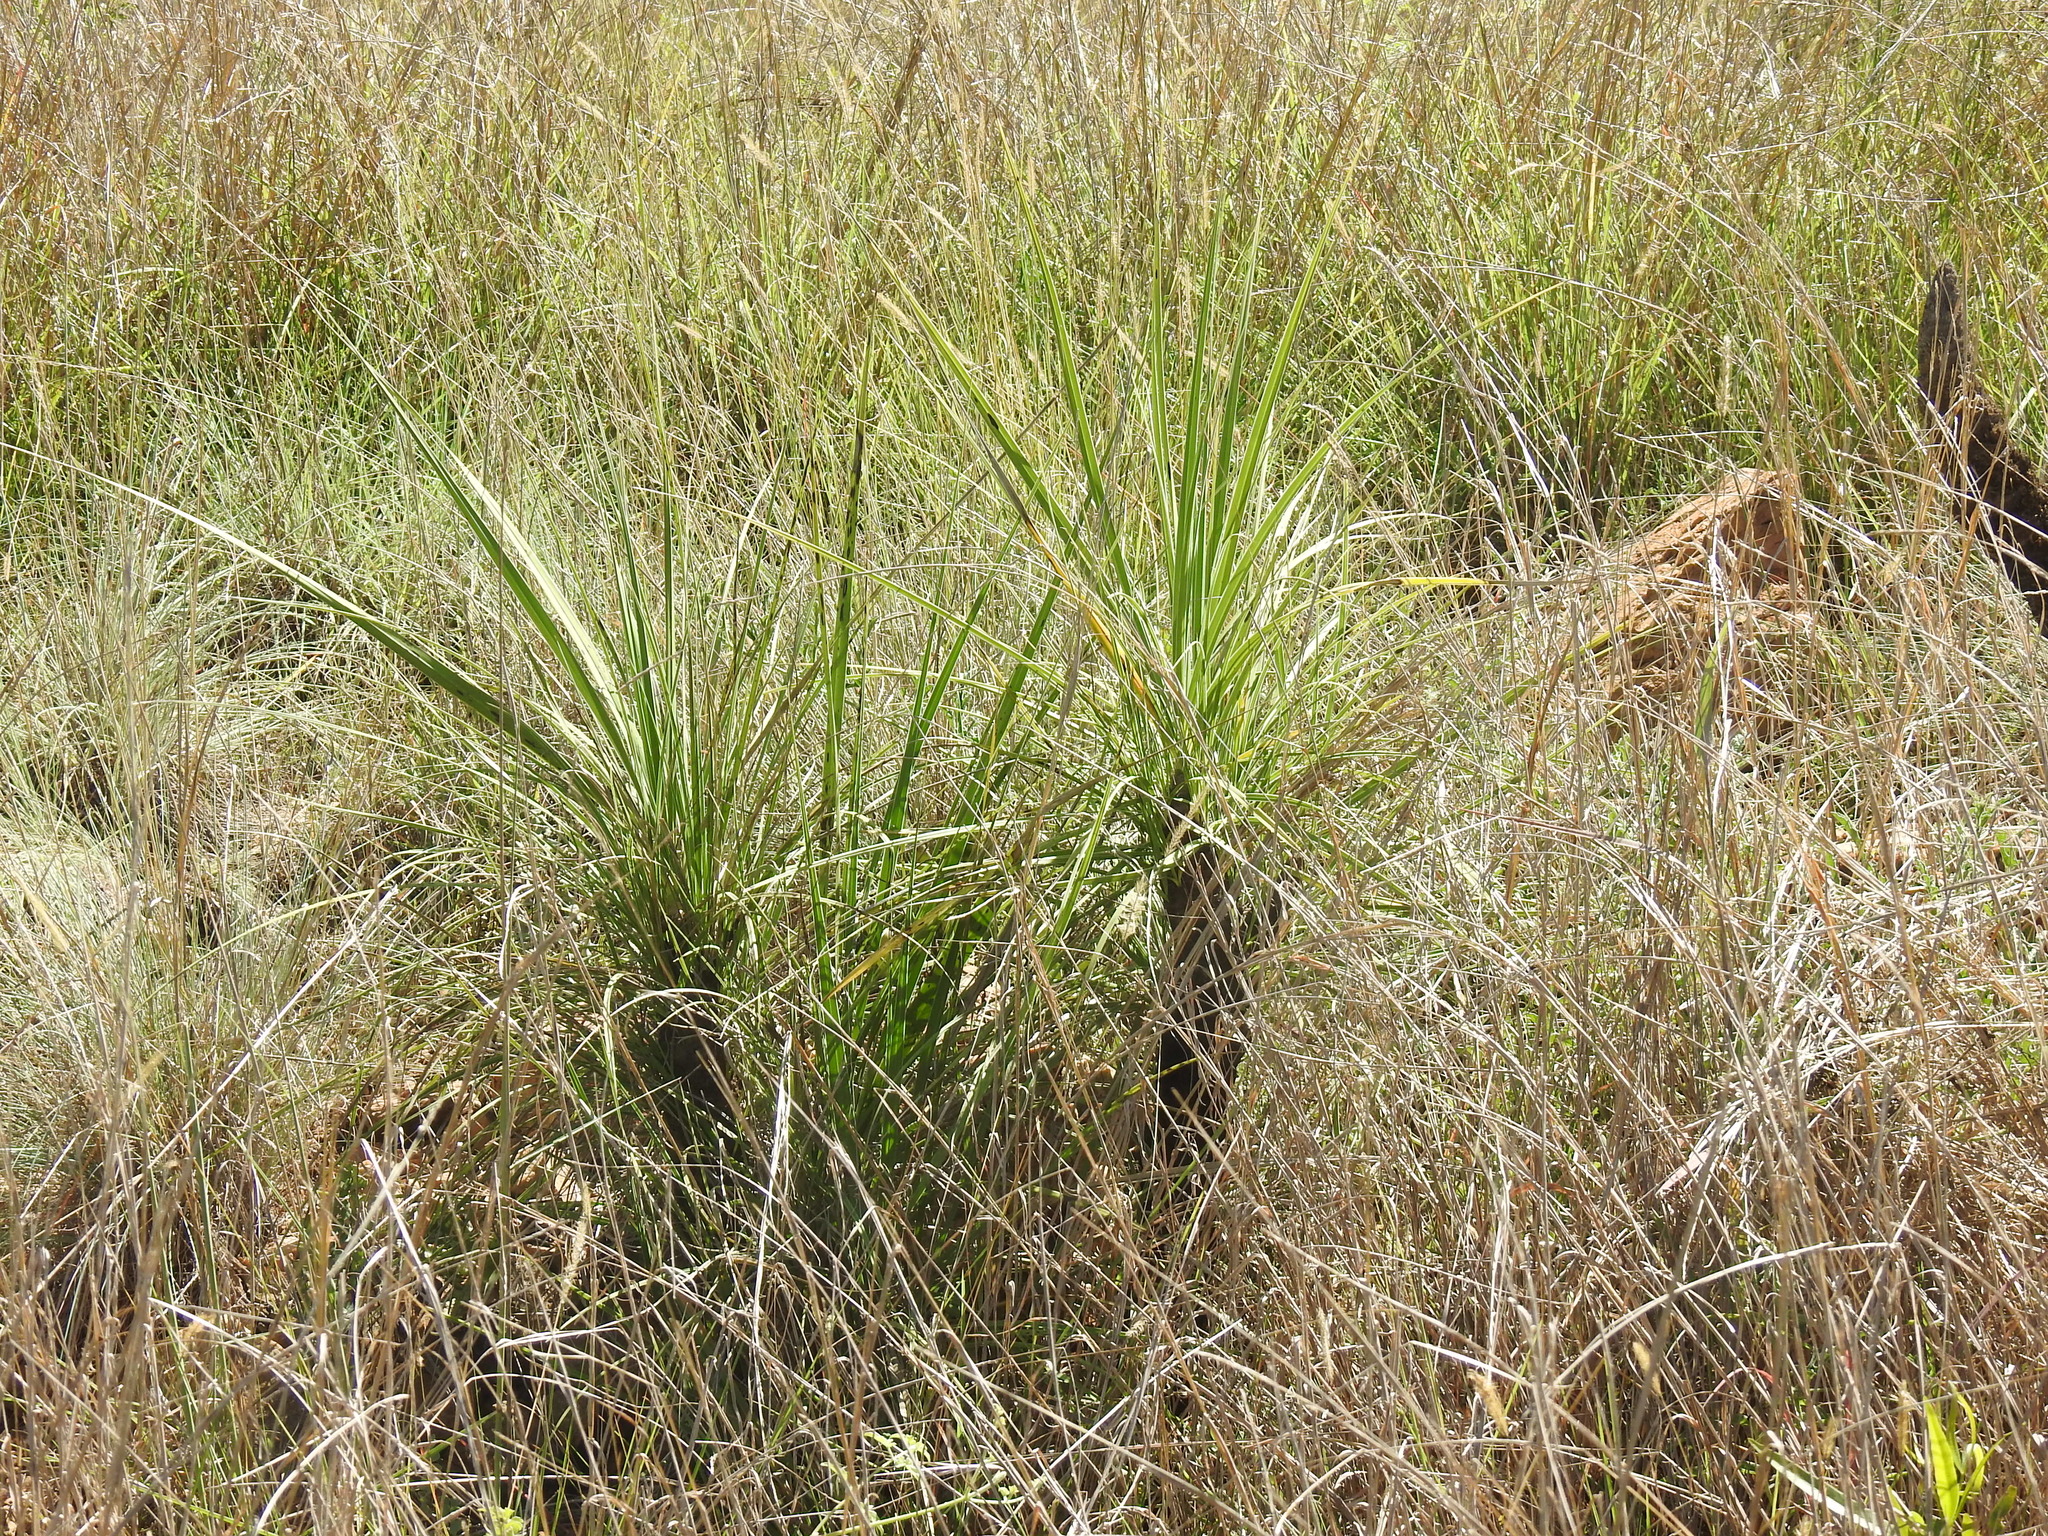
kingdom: Plantae
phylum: Tracheophyta
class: Liliopsida
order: Pandanales
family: Velloziaceae
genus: Xerophyta
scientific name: Xerophyta retinervis
